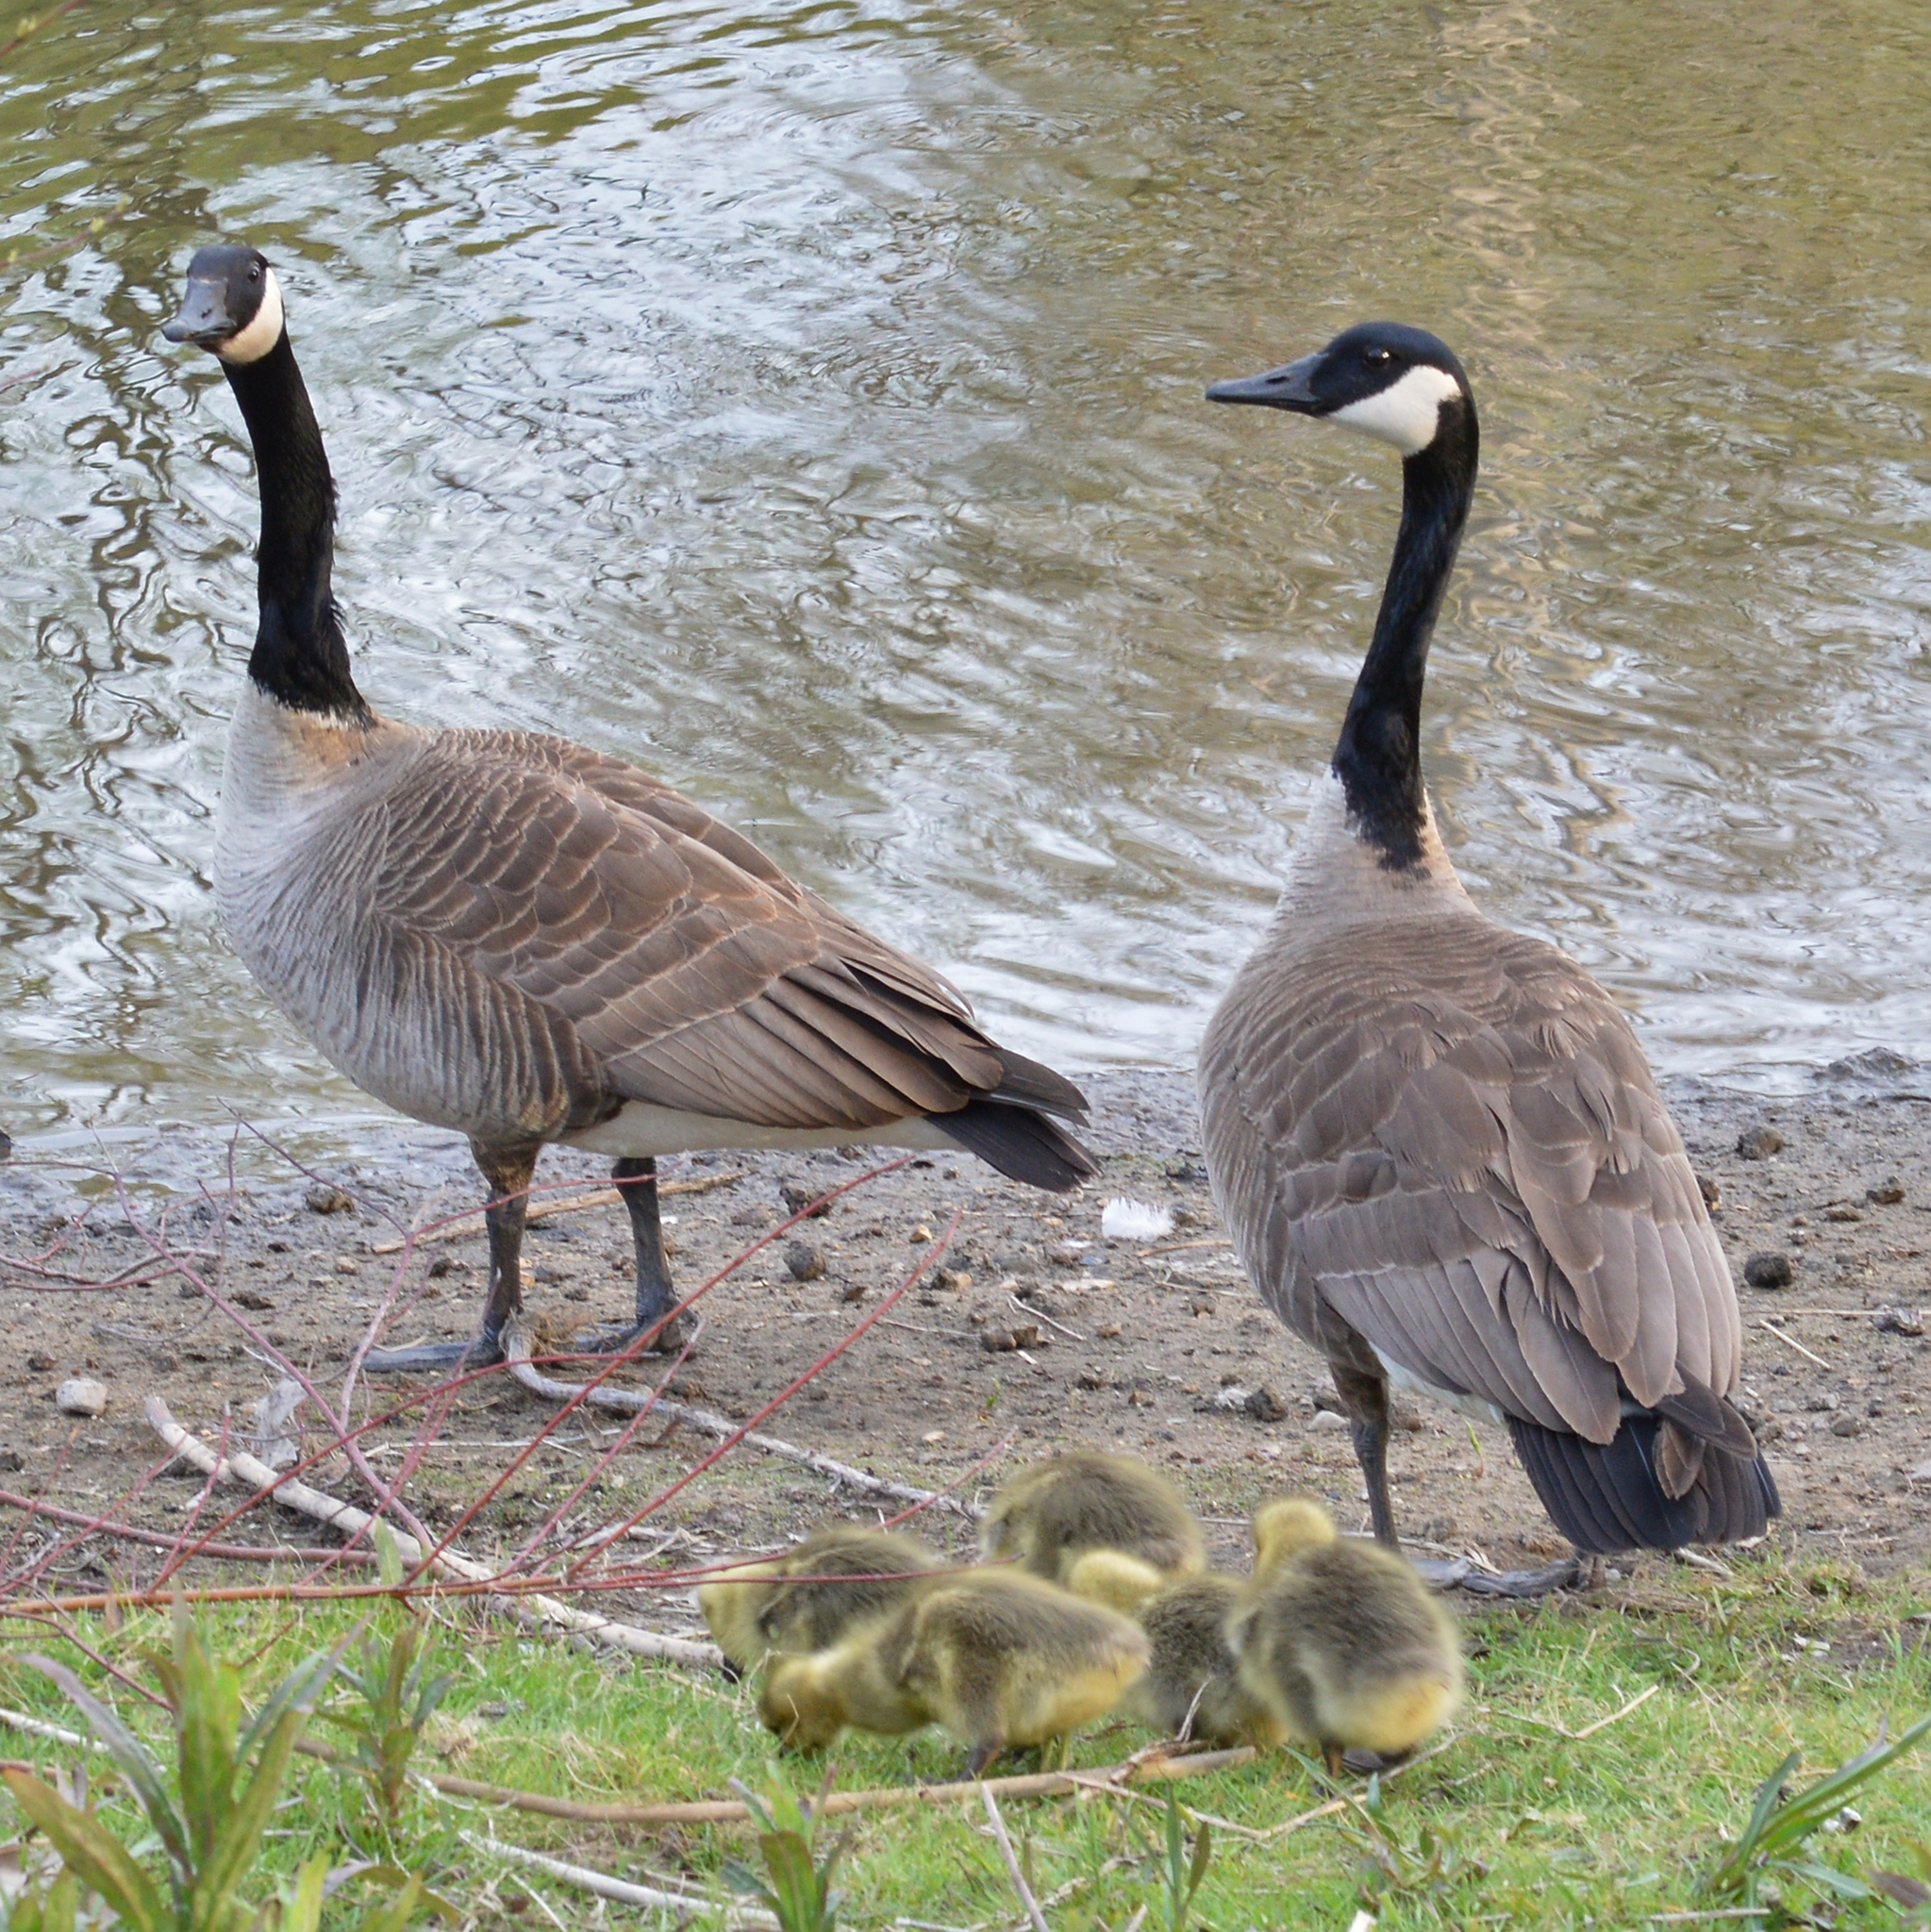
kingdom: Animalia
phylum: Chordata
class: Aves
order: Anseriformes
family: Anatidae
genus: Branta
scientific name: Branta canadensis
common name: Canada goose
